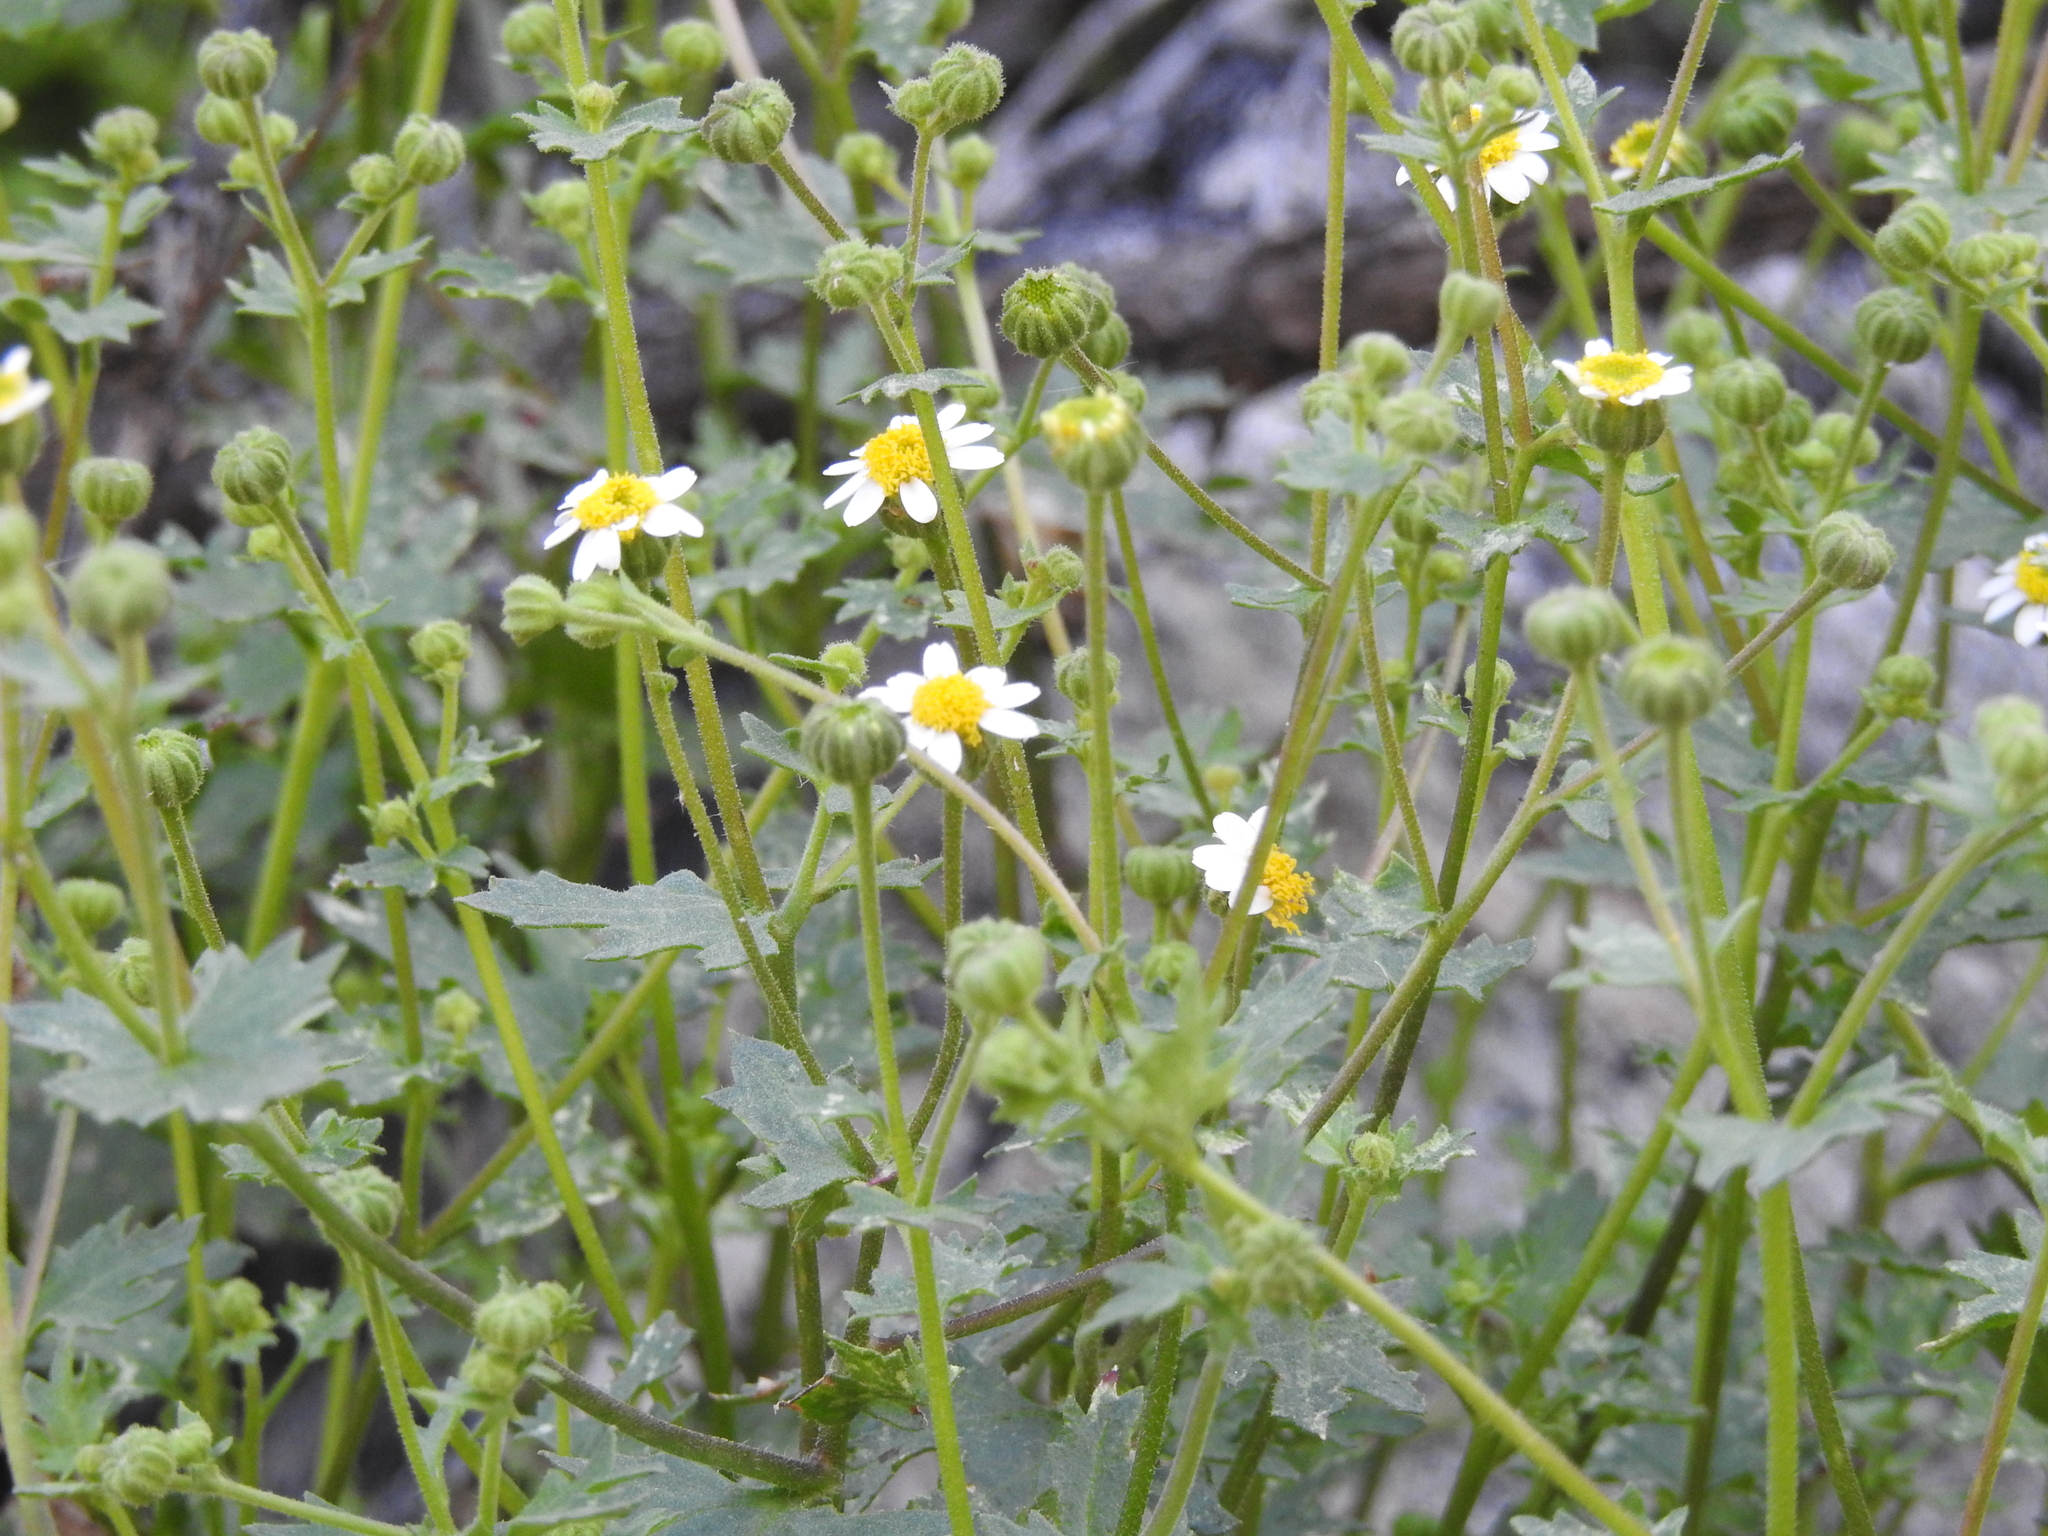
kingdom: Plantae
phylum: Tracheophyta
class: Magnoliopsida
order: Asterales
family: Asteraceae
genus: Laphamia
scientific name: Laphamia emoryi
